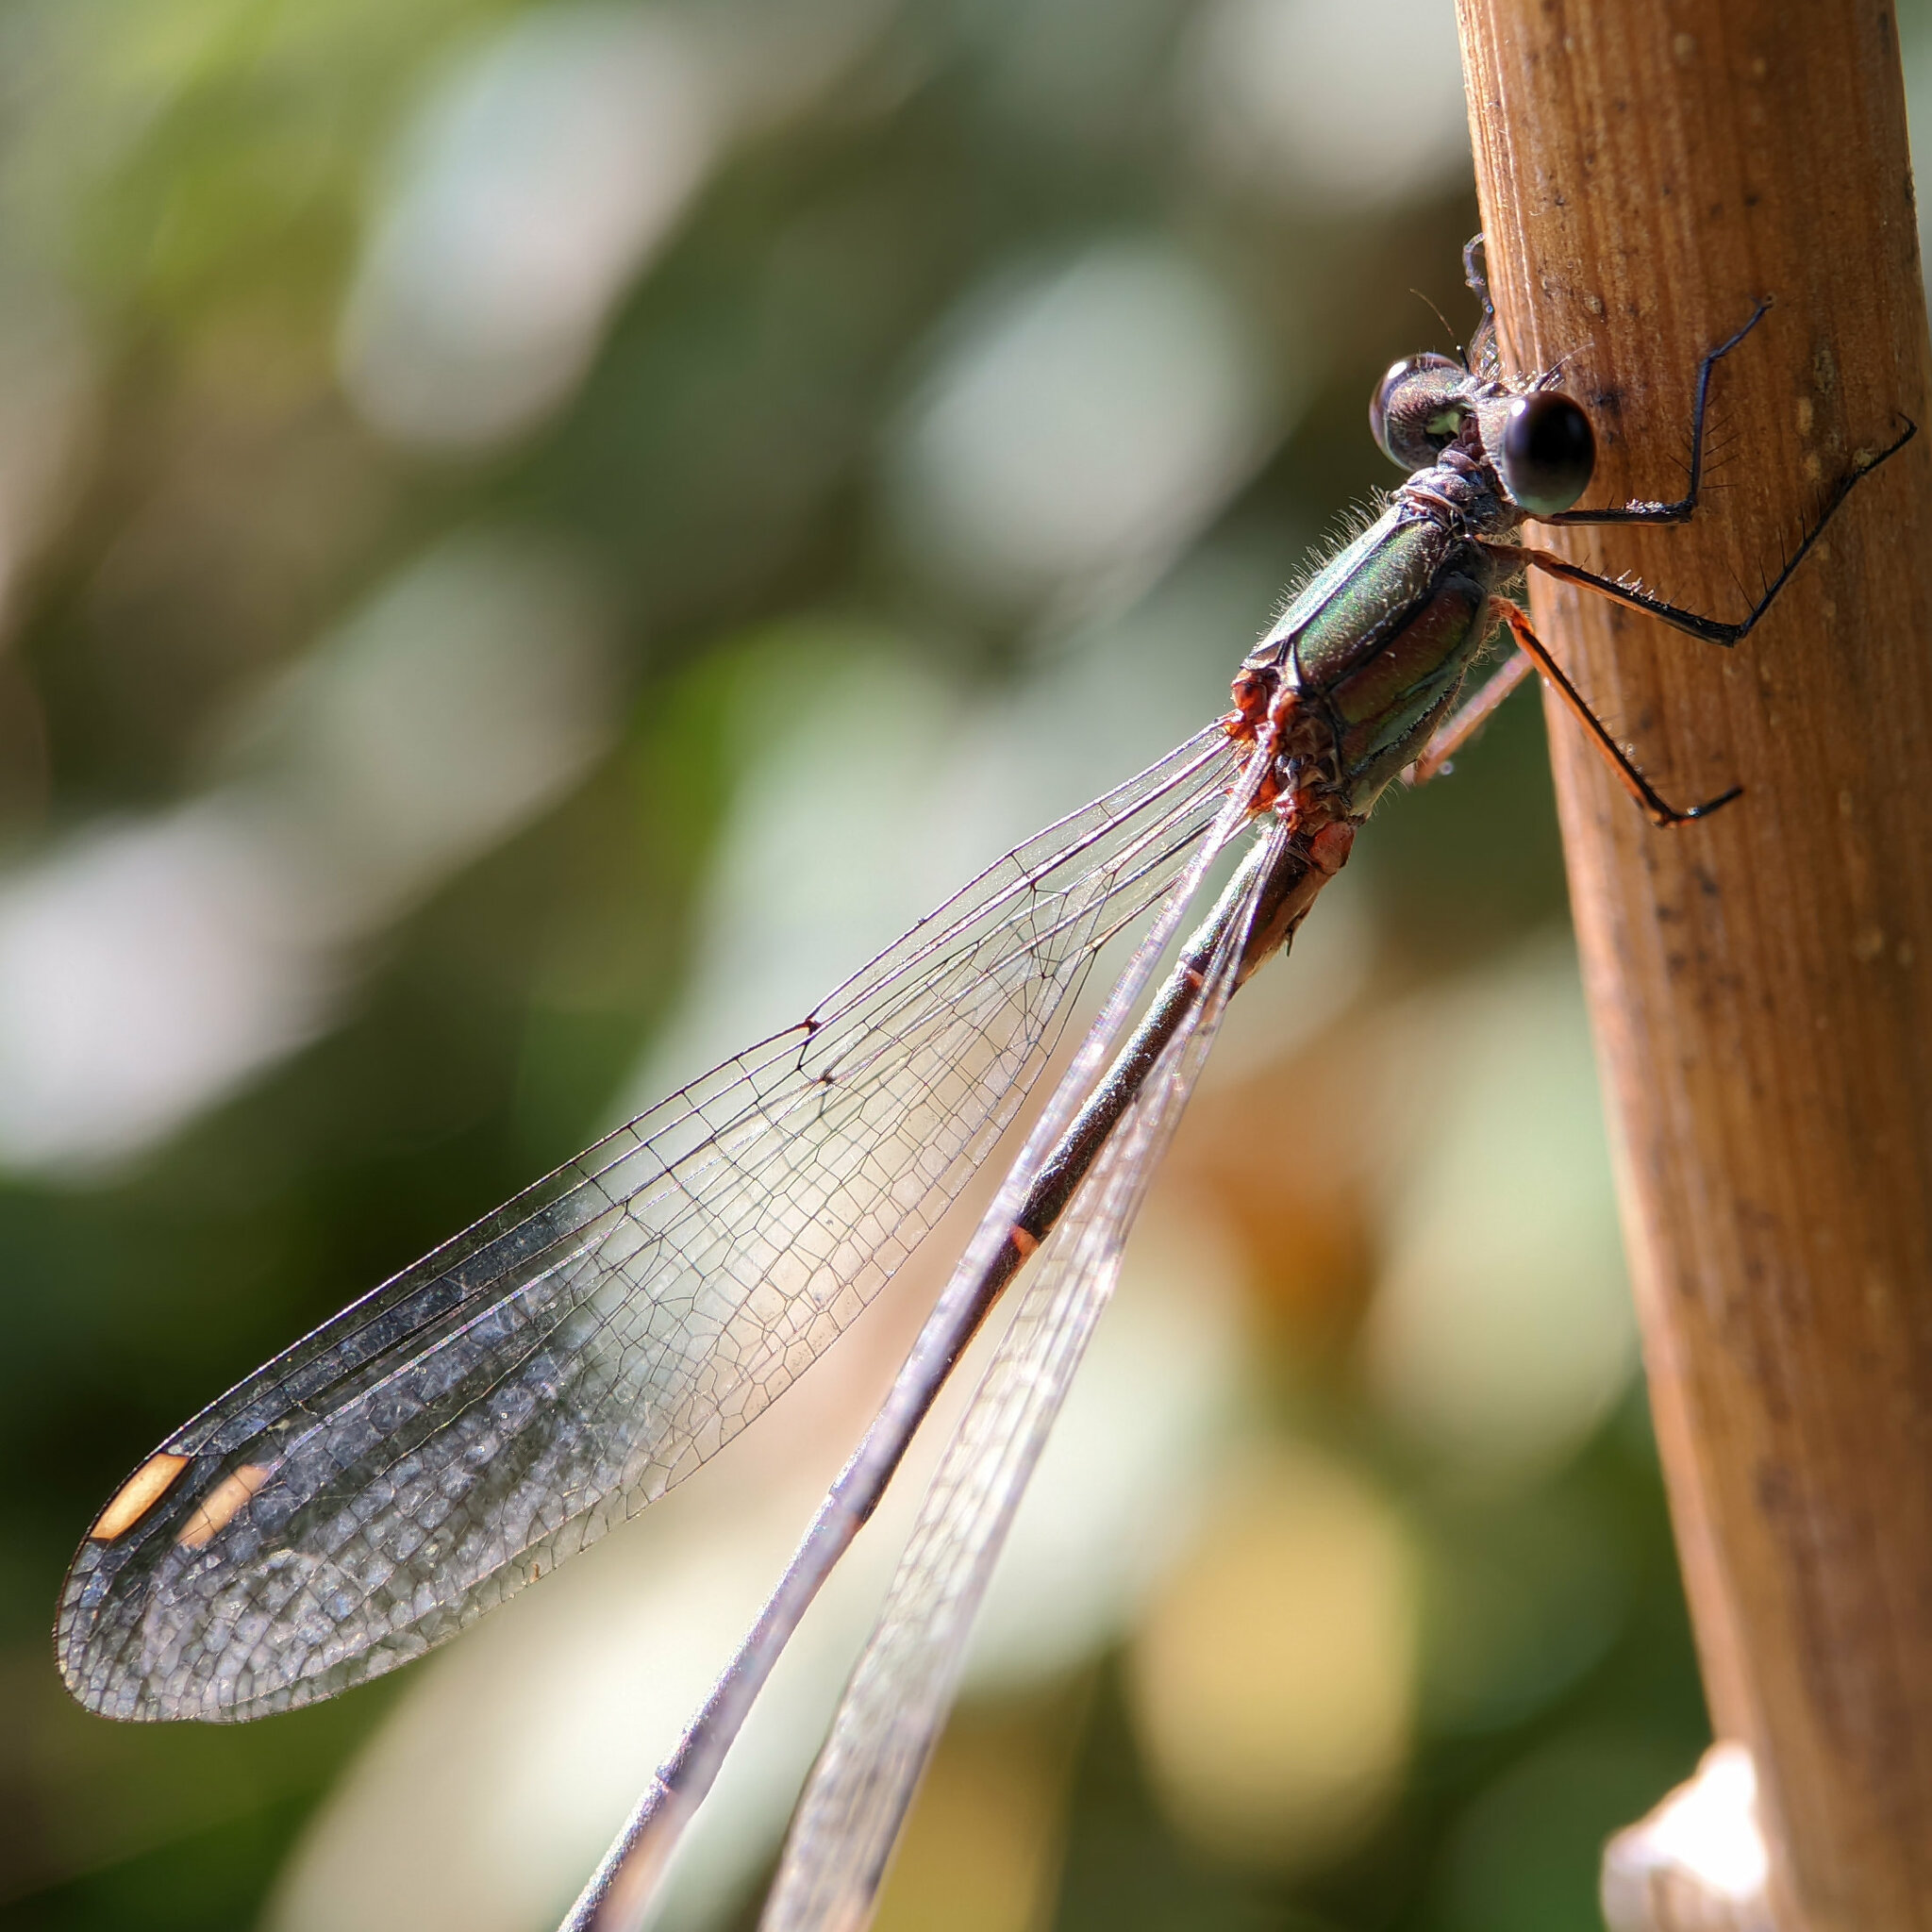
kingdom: Animalia
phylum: Arthropoda
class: Insecta
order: Odonata
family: Lestidae
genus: Chalcolestes
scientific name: Chalcolestes viridis
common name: Green emerald damselfly
